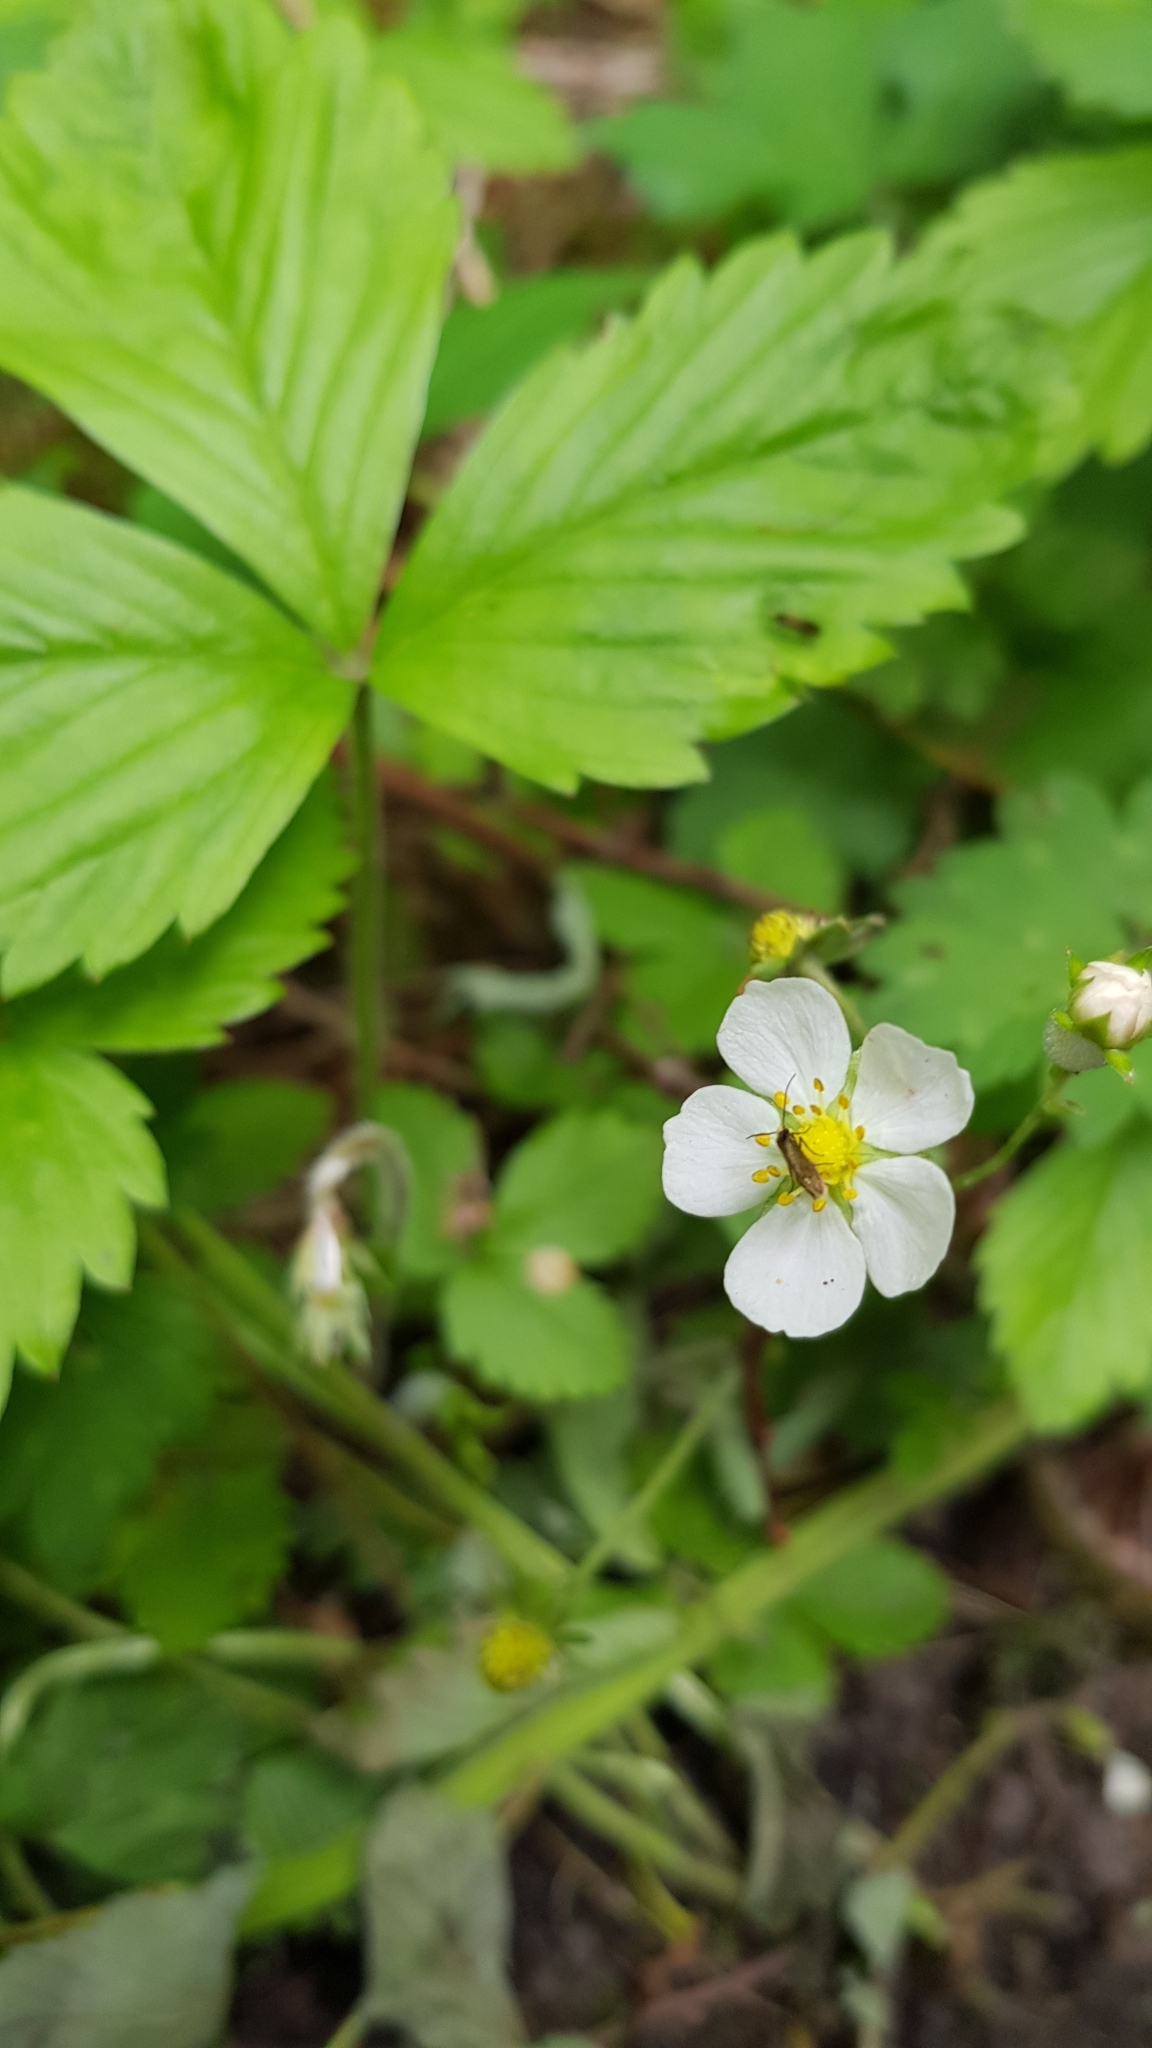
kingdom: Plantae
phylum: Tracheophyta
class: Magnoliopsida
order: Rosales
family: Rosaceae
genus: Fragaria
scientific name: Fragaria vesca
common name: Wild strawberry
